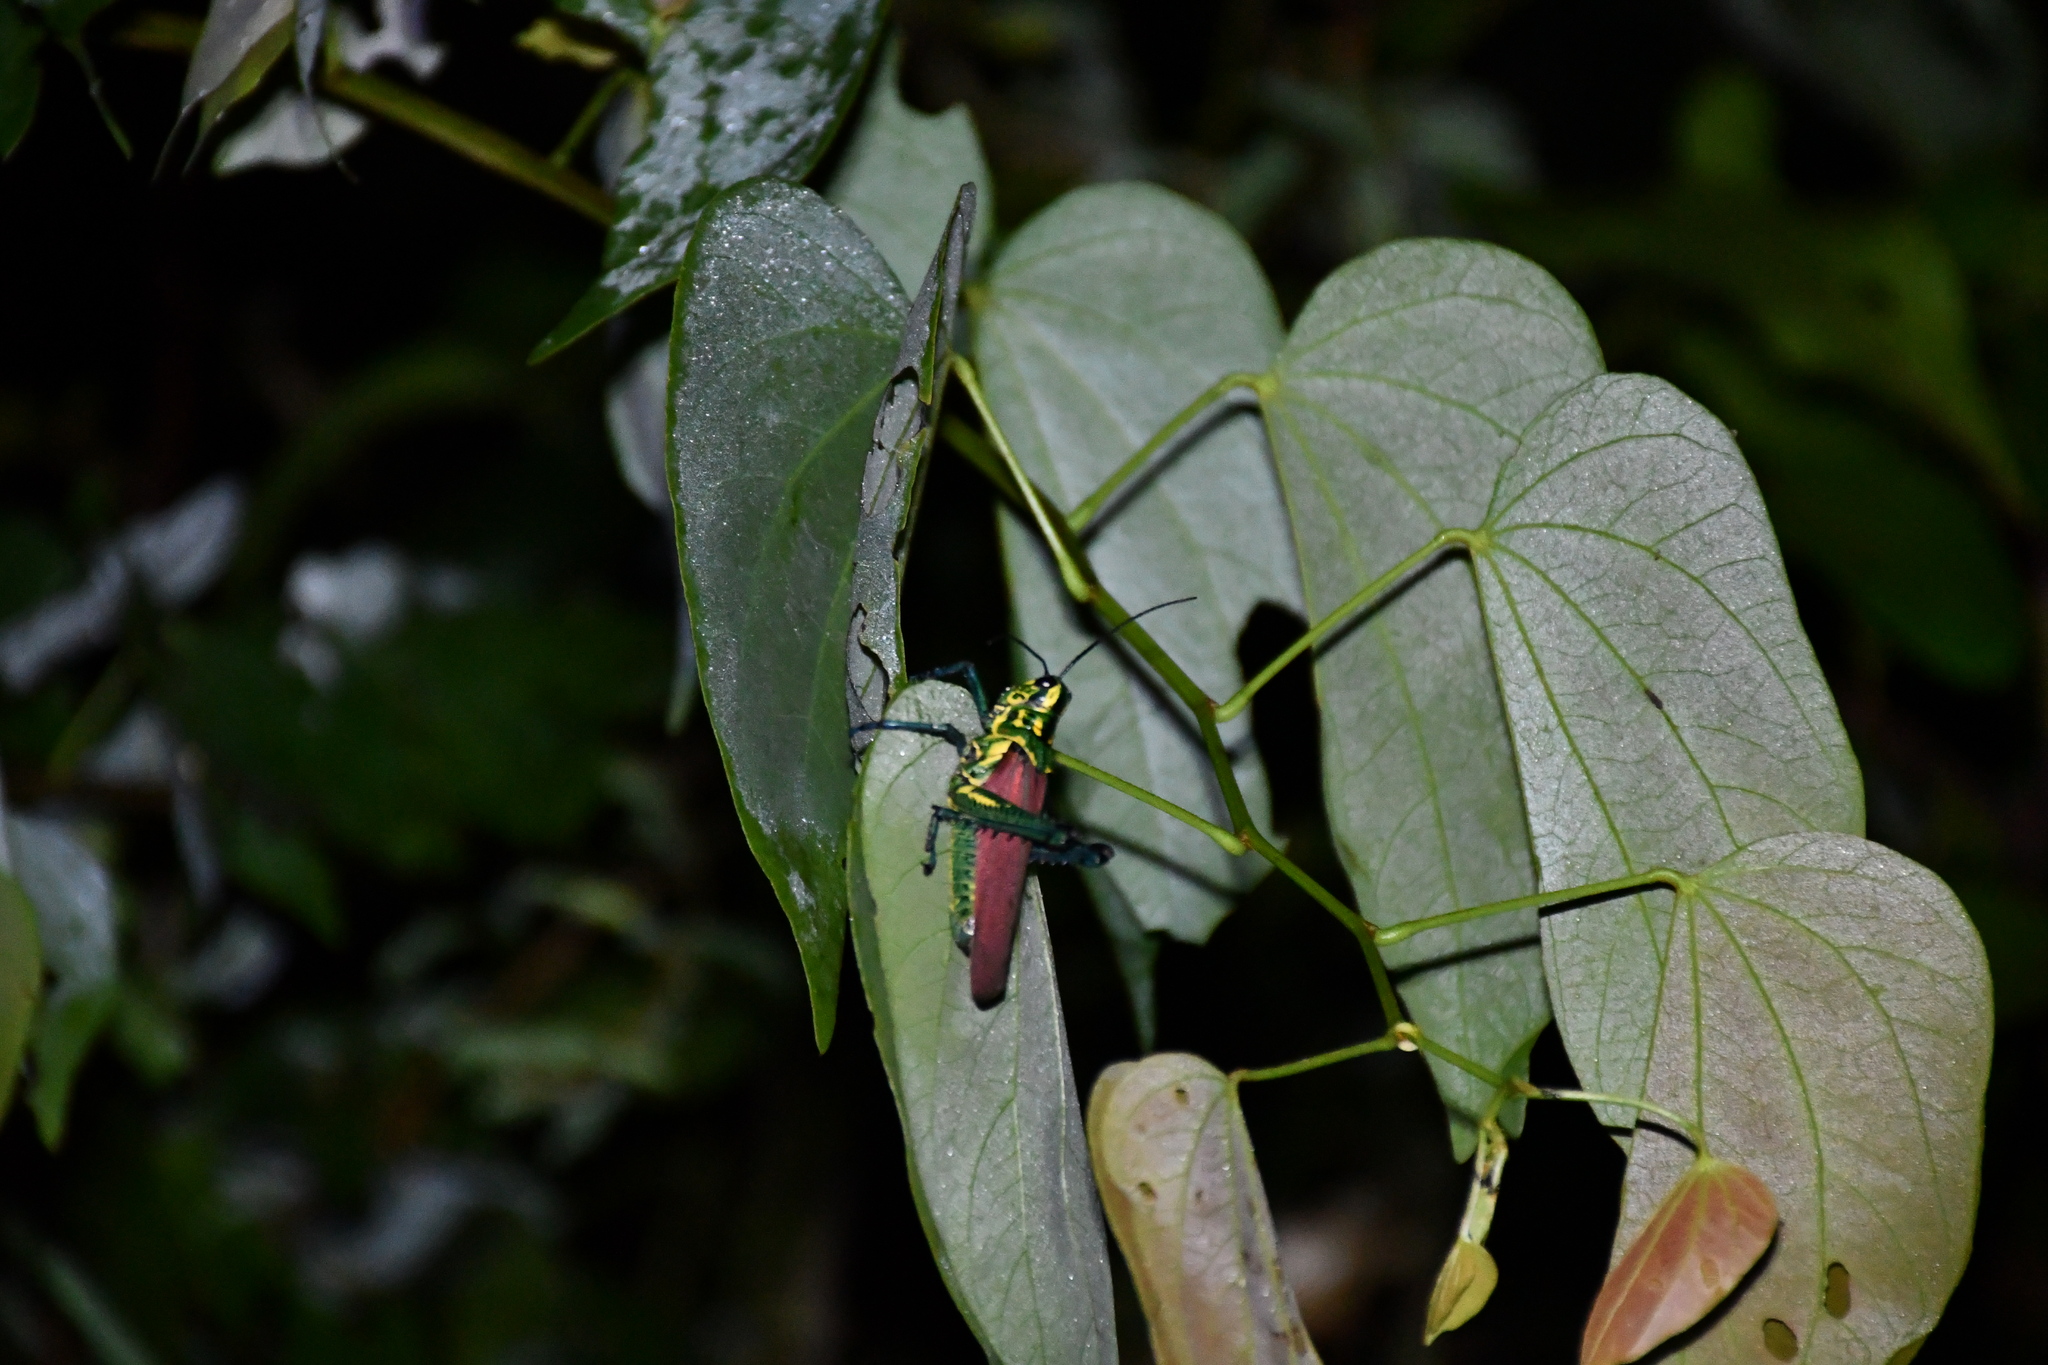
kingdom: Animalia
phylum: Arthropoda
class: Insecta
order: Orthoptera
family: Romaleidae
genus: Chromacris
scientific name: Chromacris speciosa
